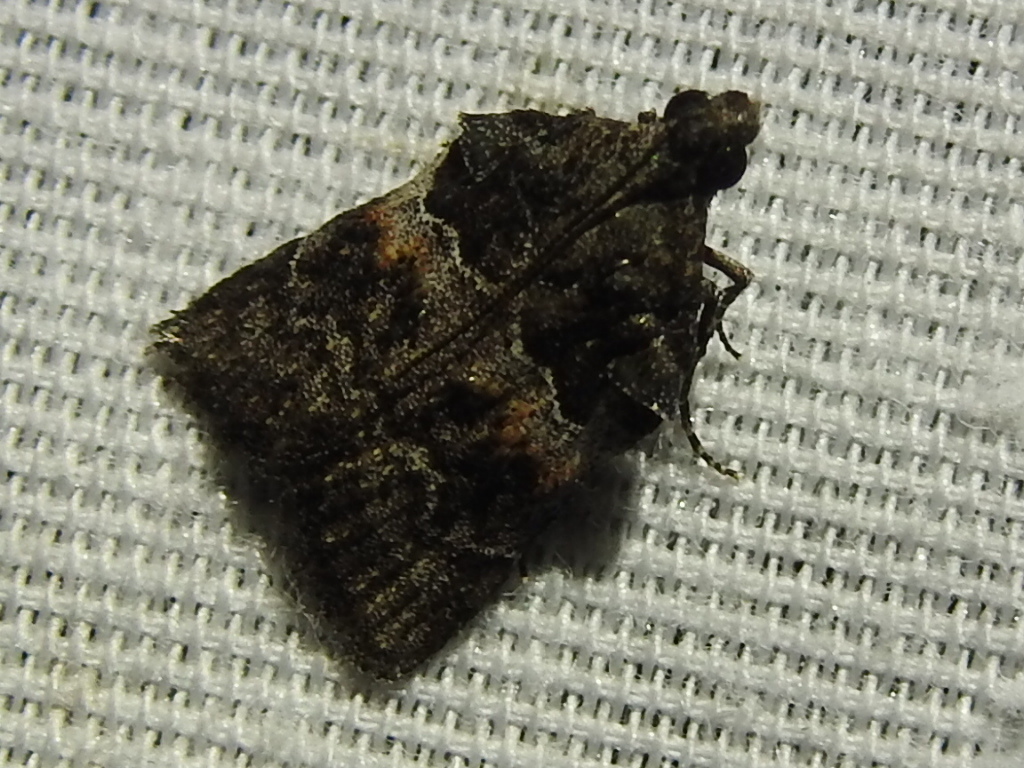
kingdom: Animalia
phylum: Arthropoda
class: Insecta
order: Lepidoptera
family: Pyralidae
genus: Satole
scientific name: Satole ligniperdalis
